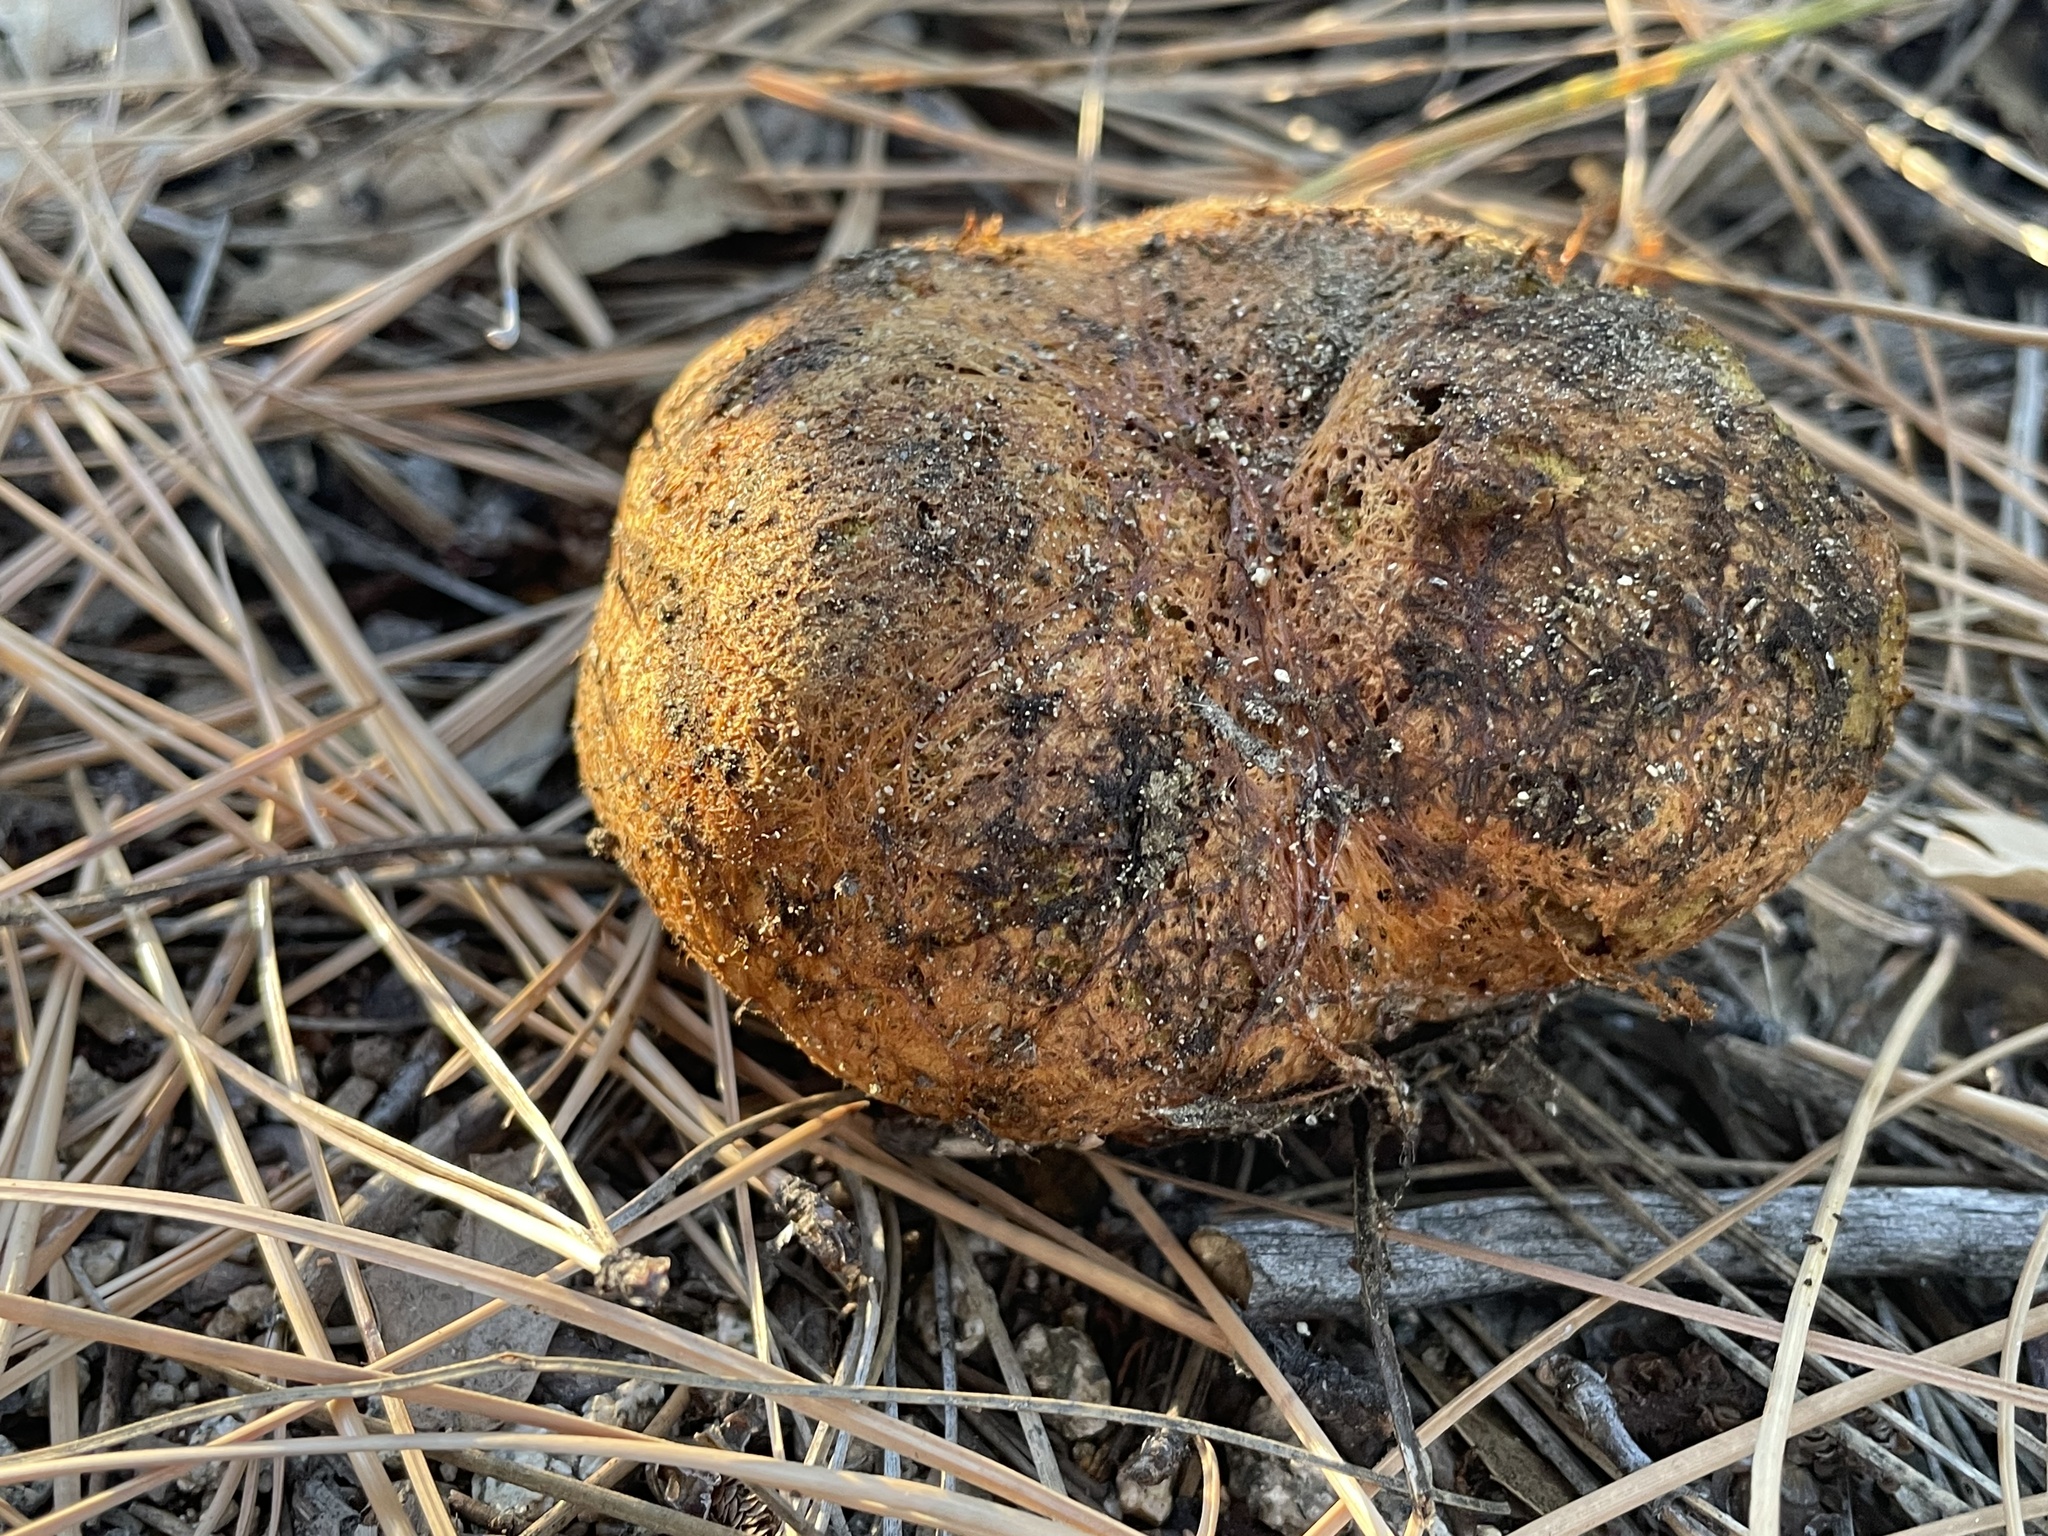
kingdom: Fungi
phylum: Basidiomycota
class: Agaricomycetes
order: Boletales
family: Rhizopogonaceae
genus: Rhizopogon
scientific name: Rhizopogon ochraceorubens
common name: Yellow beard truffle
